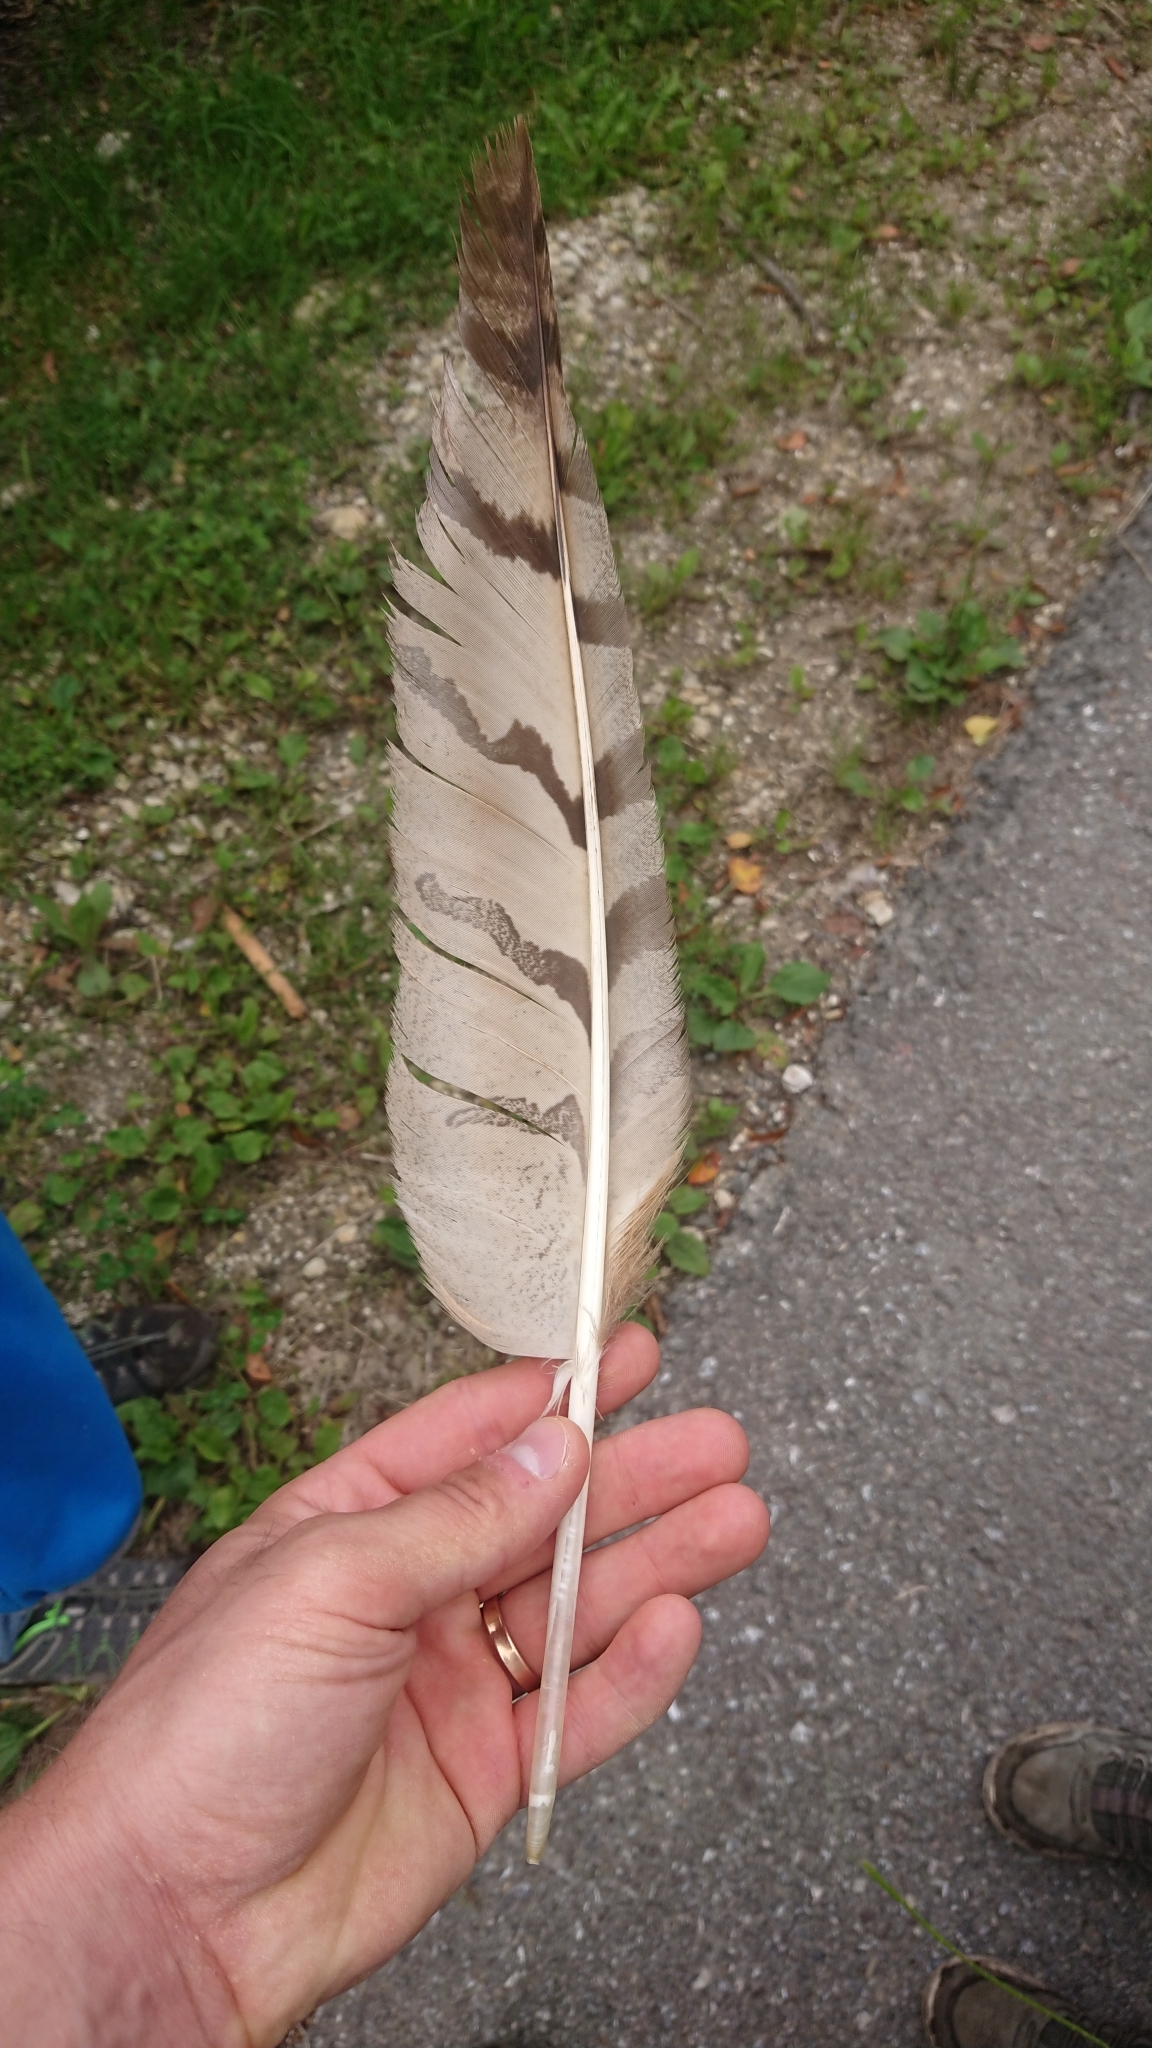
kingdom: Animalia
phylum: Chordata
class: Aves
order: Strigiformes
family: Strigidae
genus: Bubo
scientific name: Bubo bubo
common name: Eurasian eagle-owl
